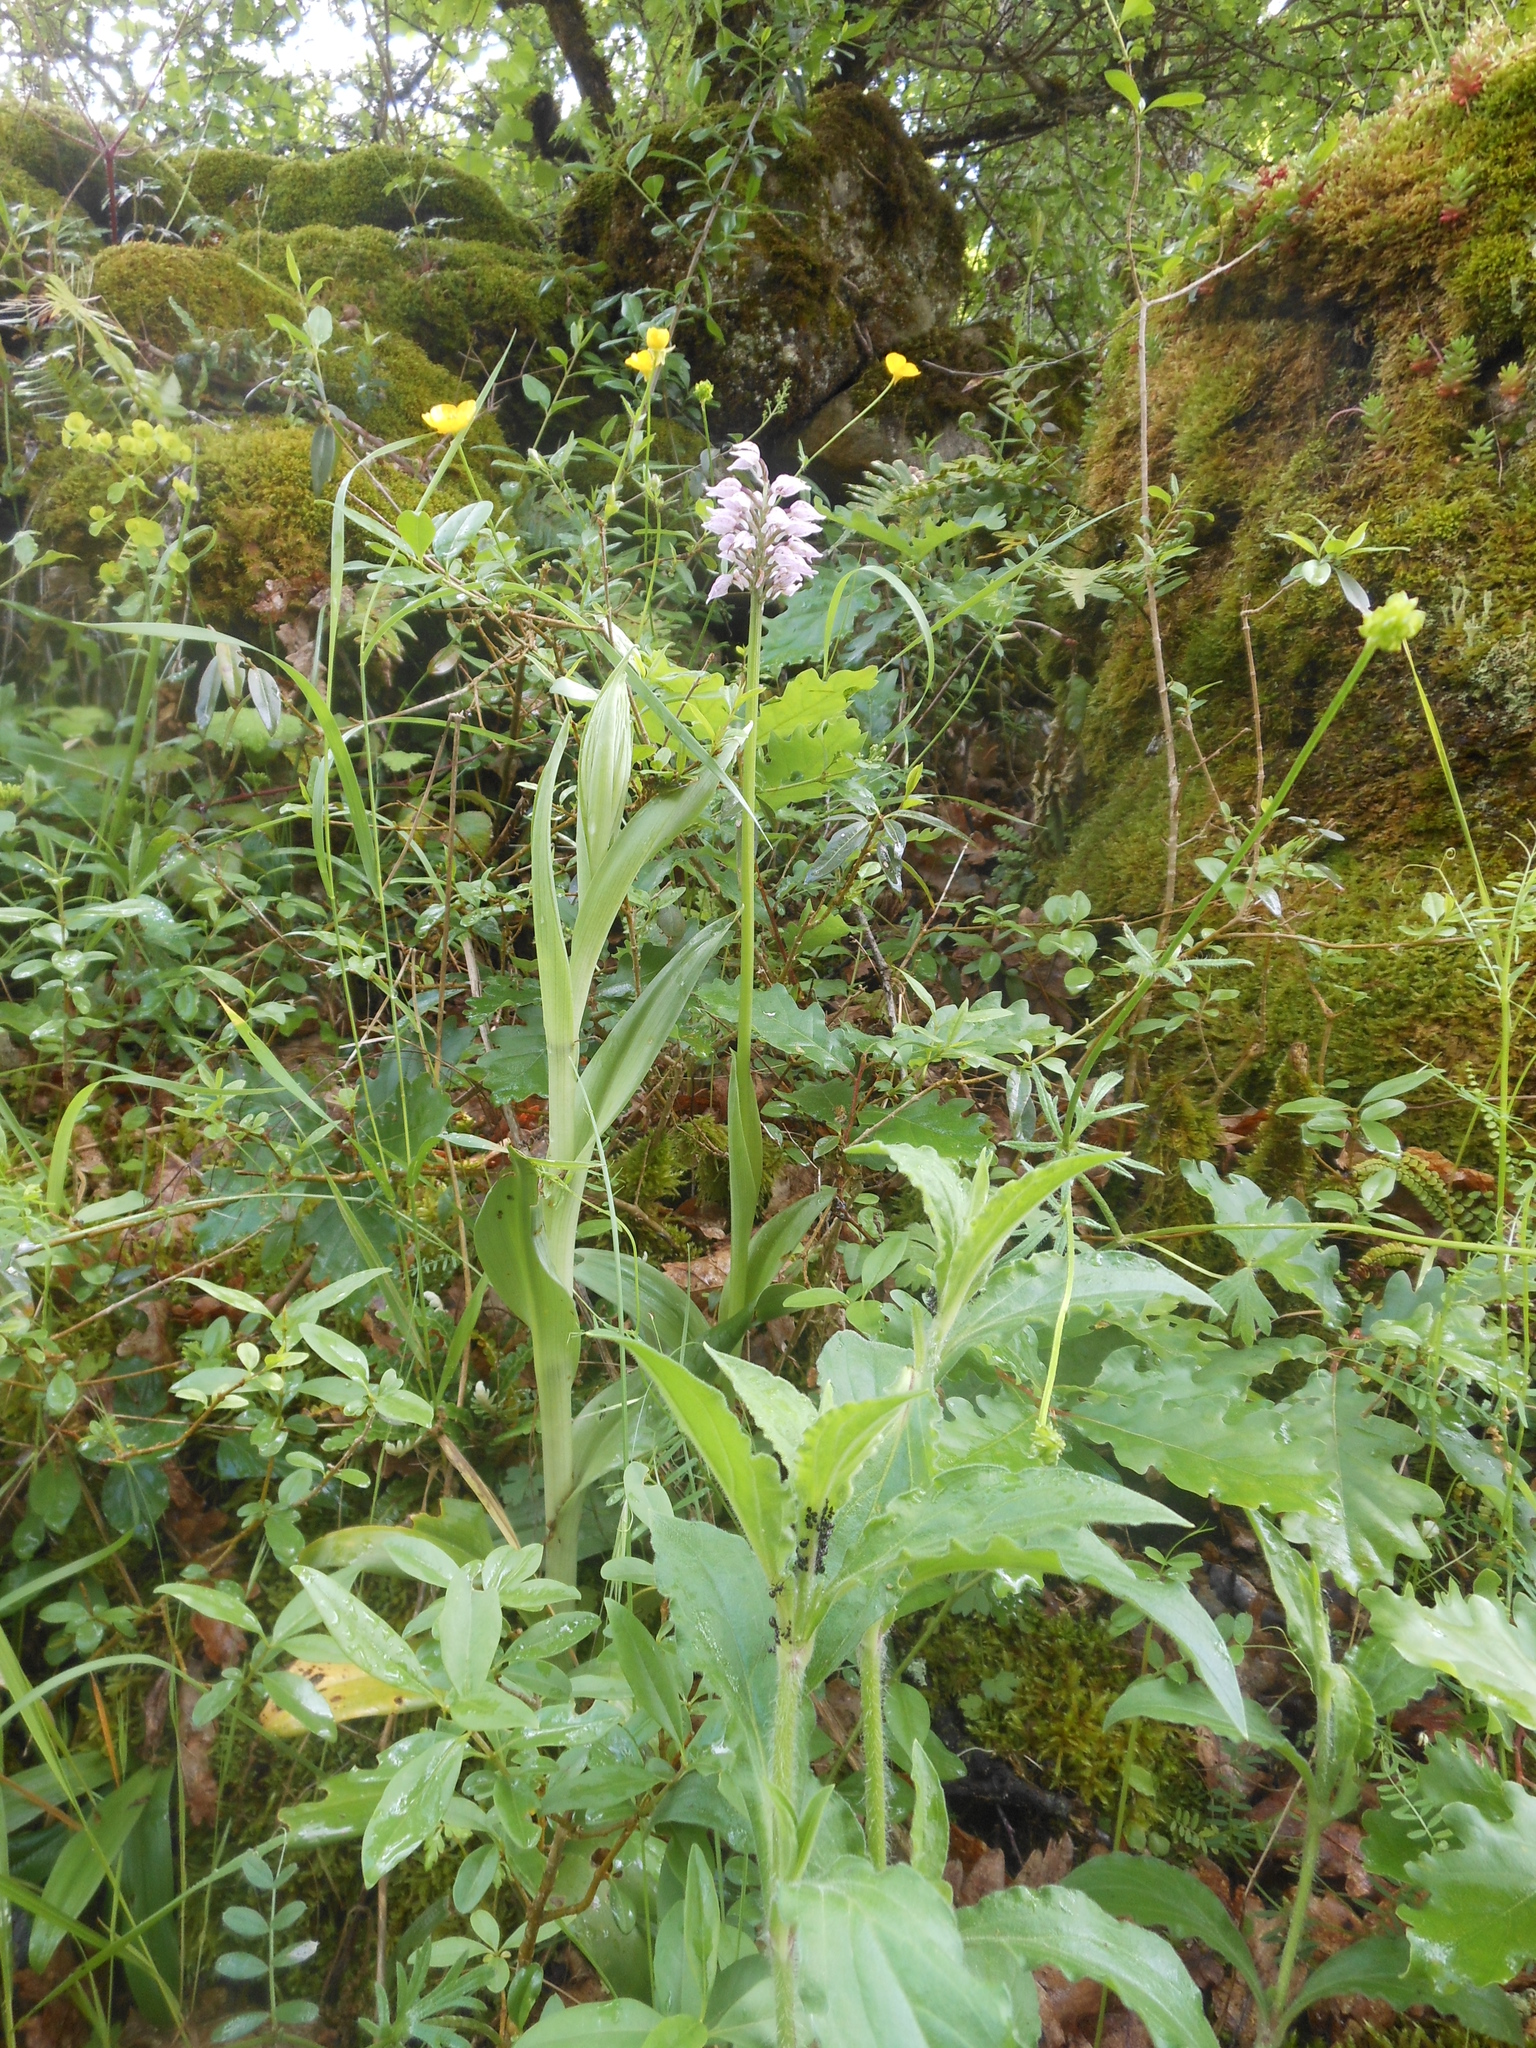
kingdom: Plantae
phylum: Tracheophyta
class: Liliopsida
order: Asparagales
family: Orchidaceae
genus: Orchis
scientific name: Orchis militaris
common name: Military orchid
